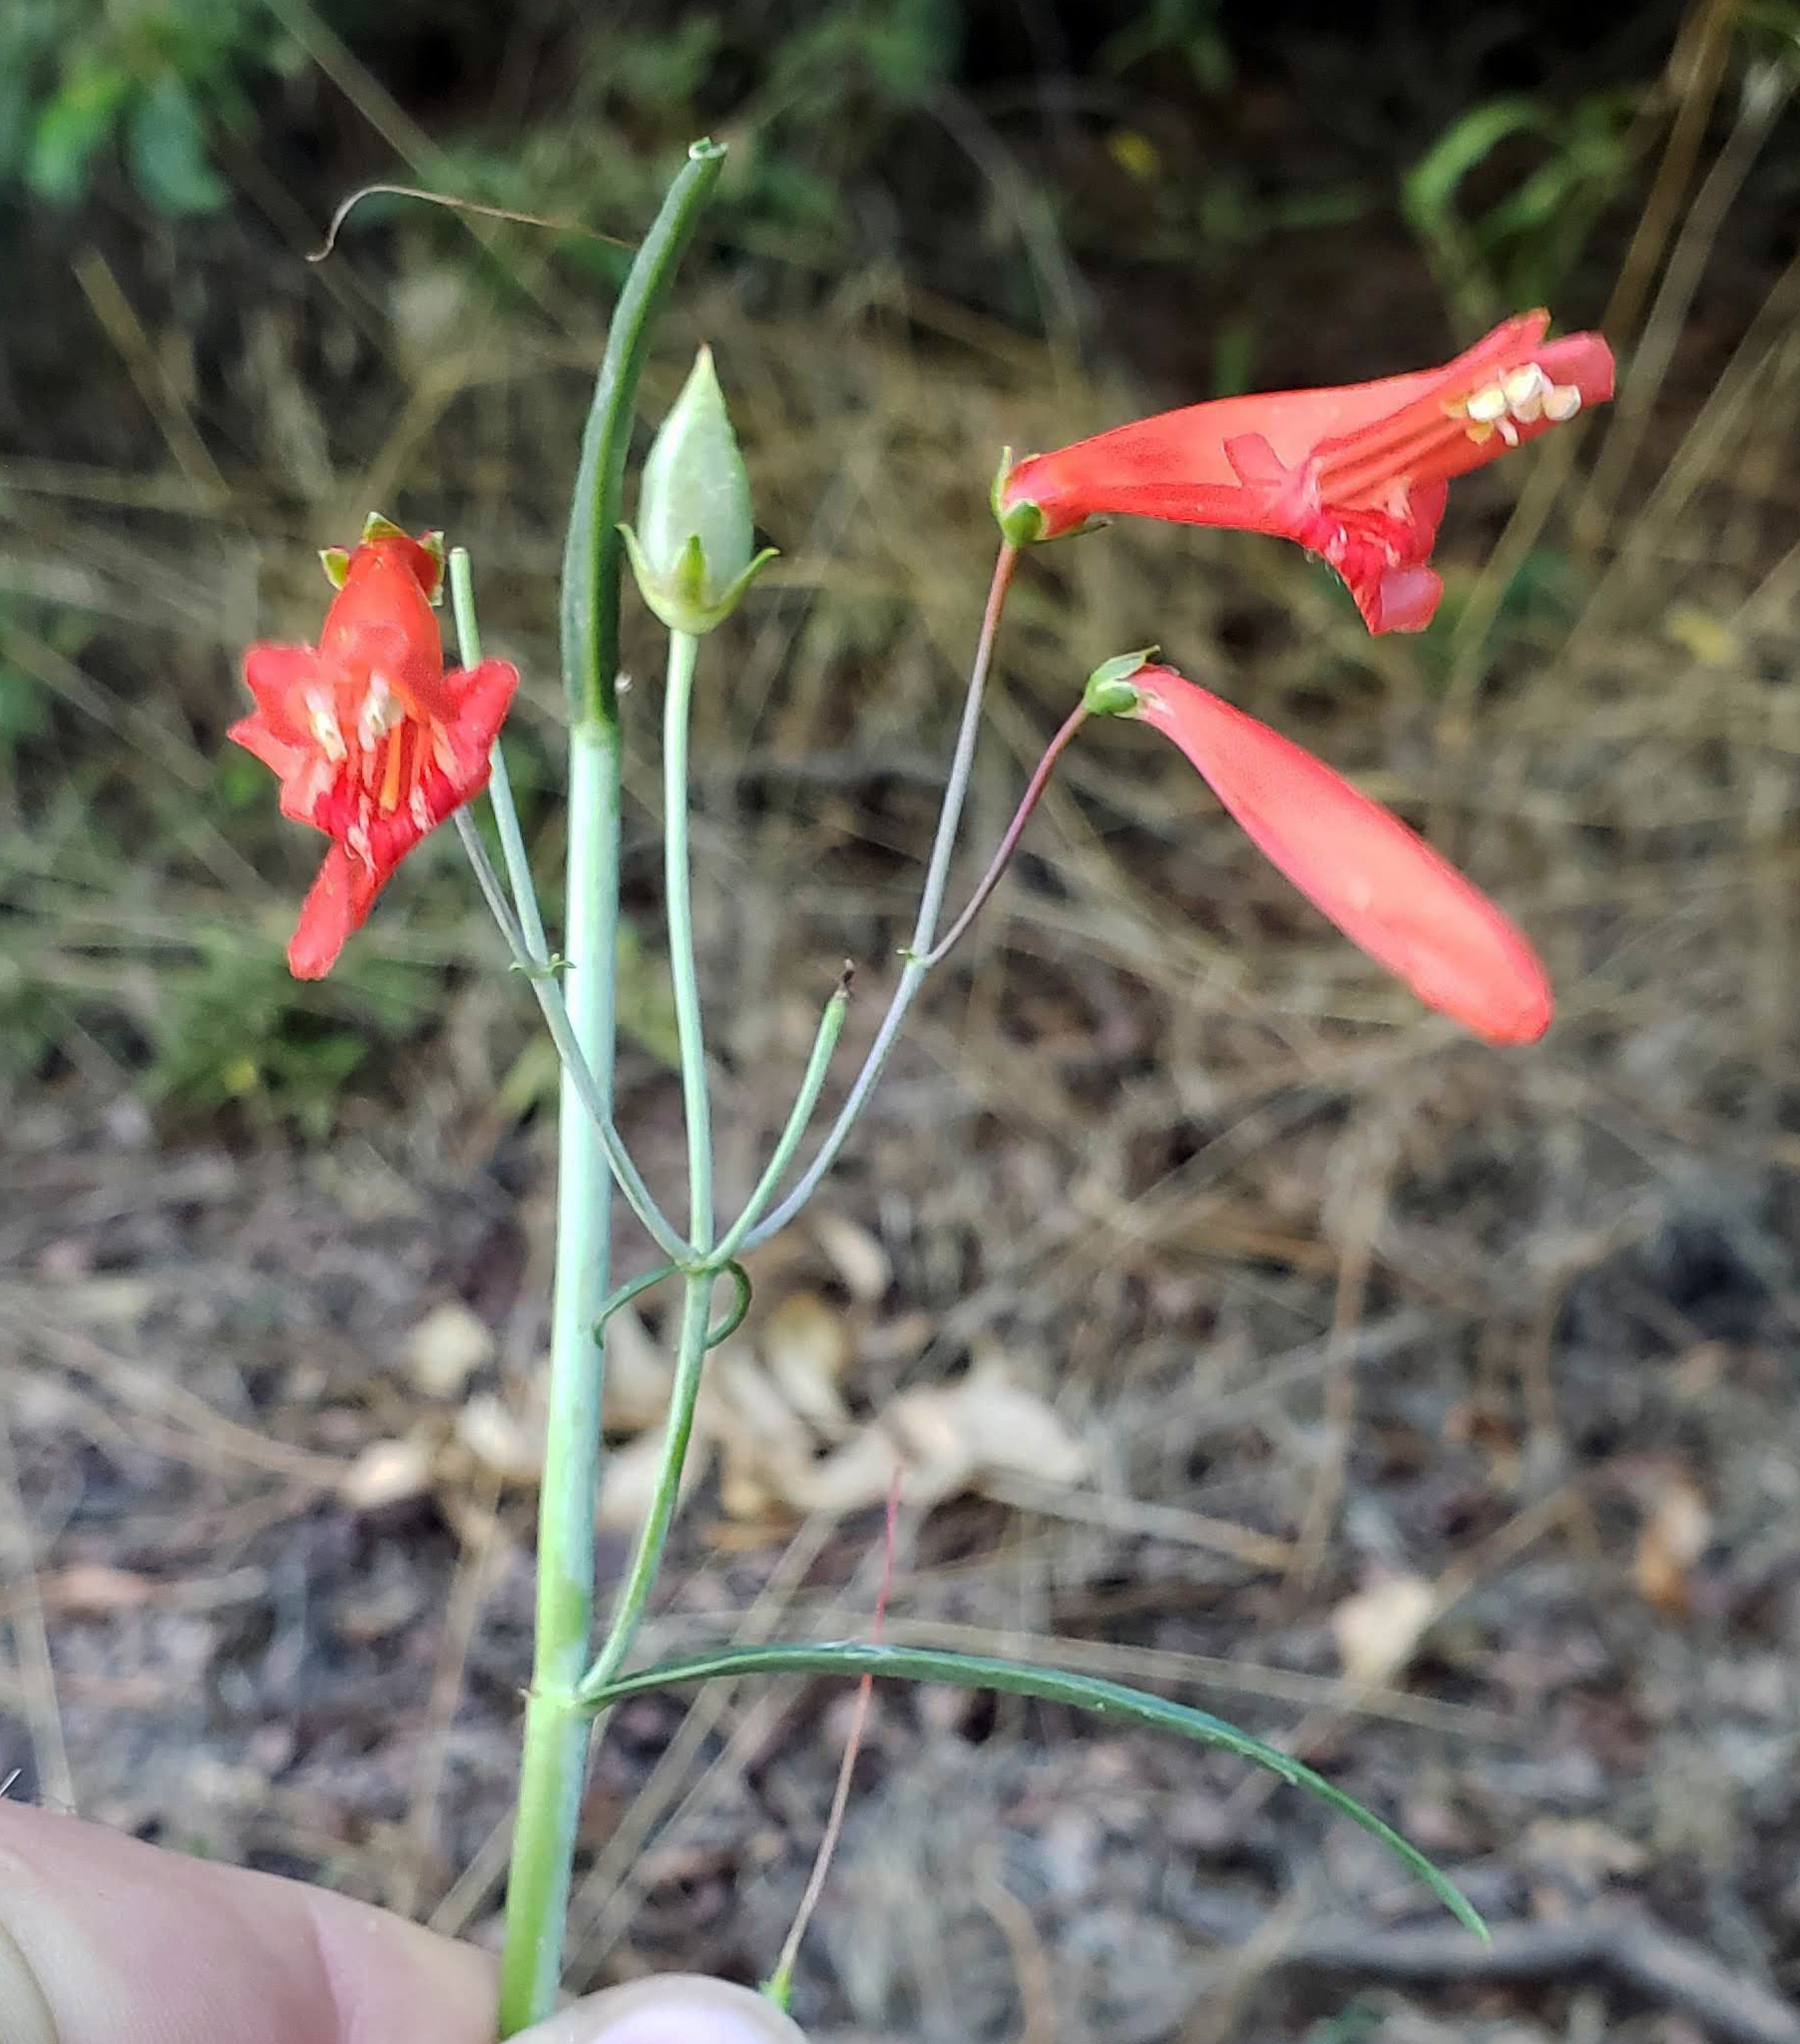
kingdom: Plantae
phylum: Tracheophyta
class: Magnoliopsida
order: Lamiales
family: Plantaginaceae
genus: Penstemon
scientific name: Penstemon barbatus
